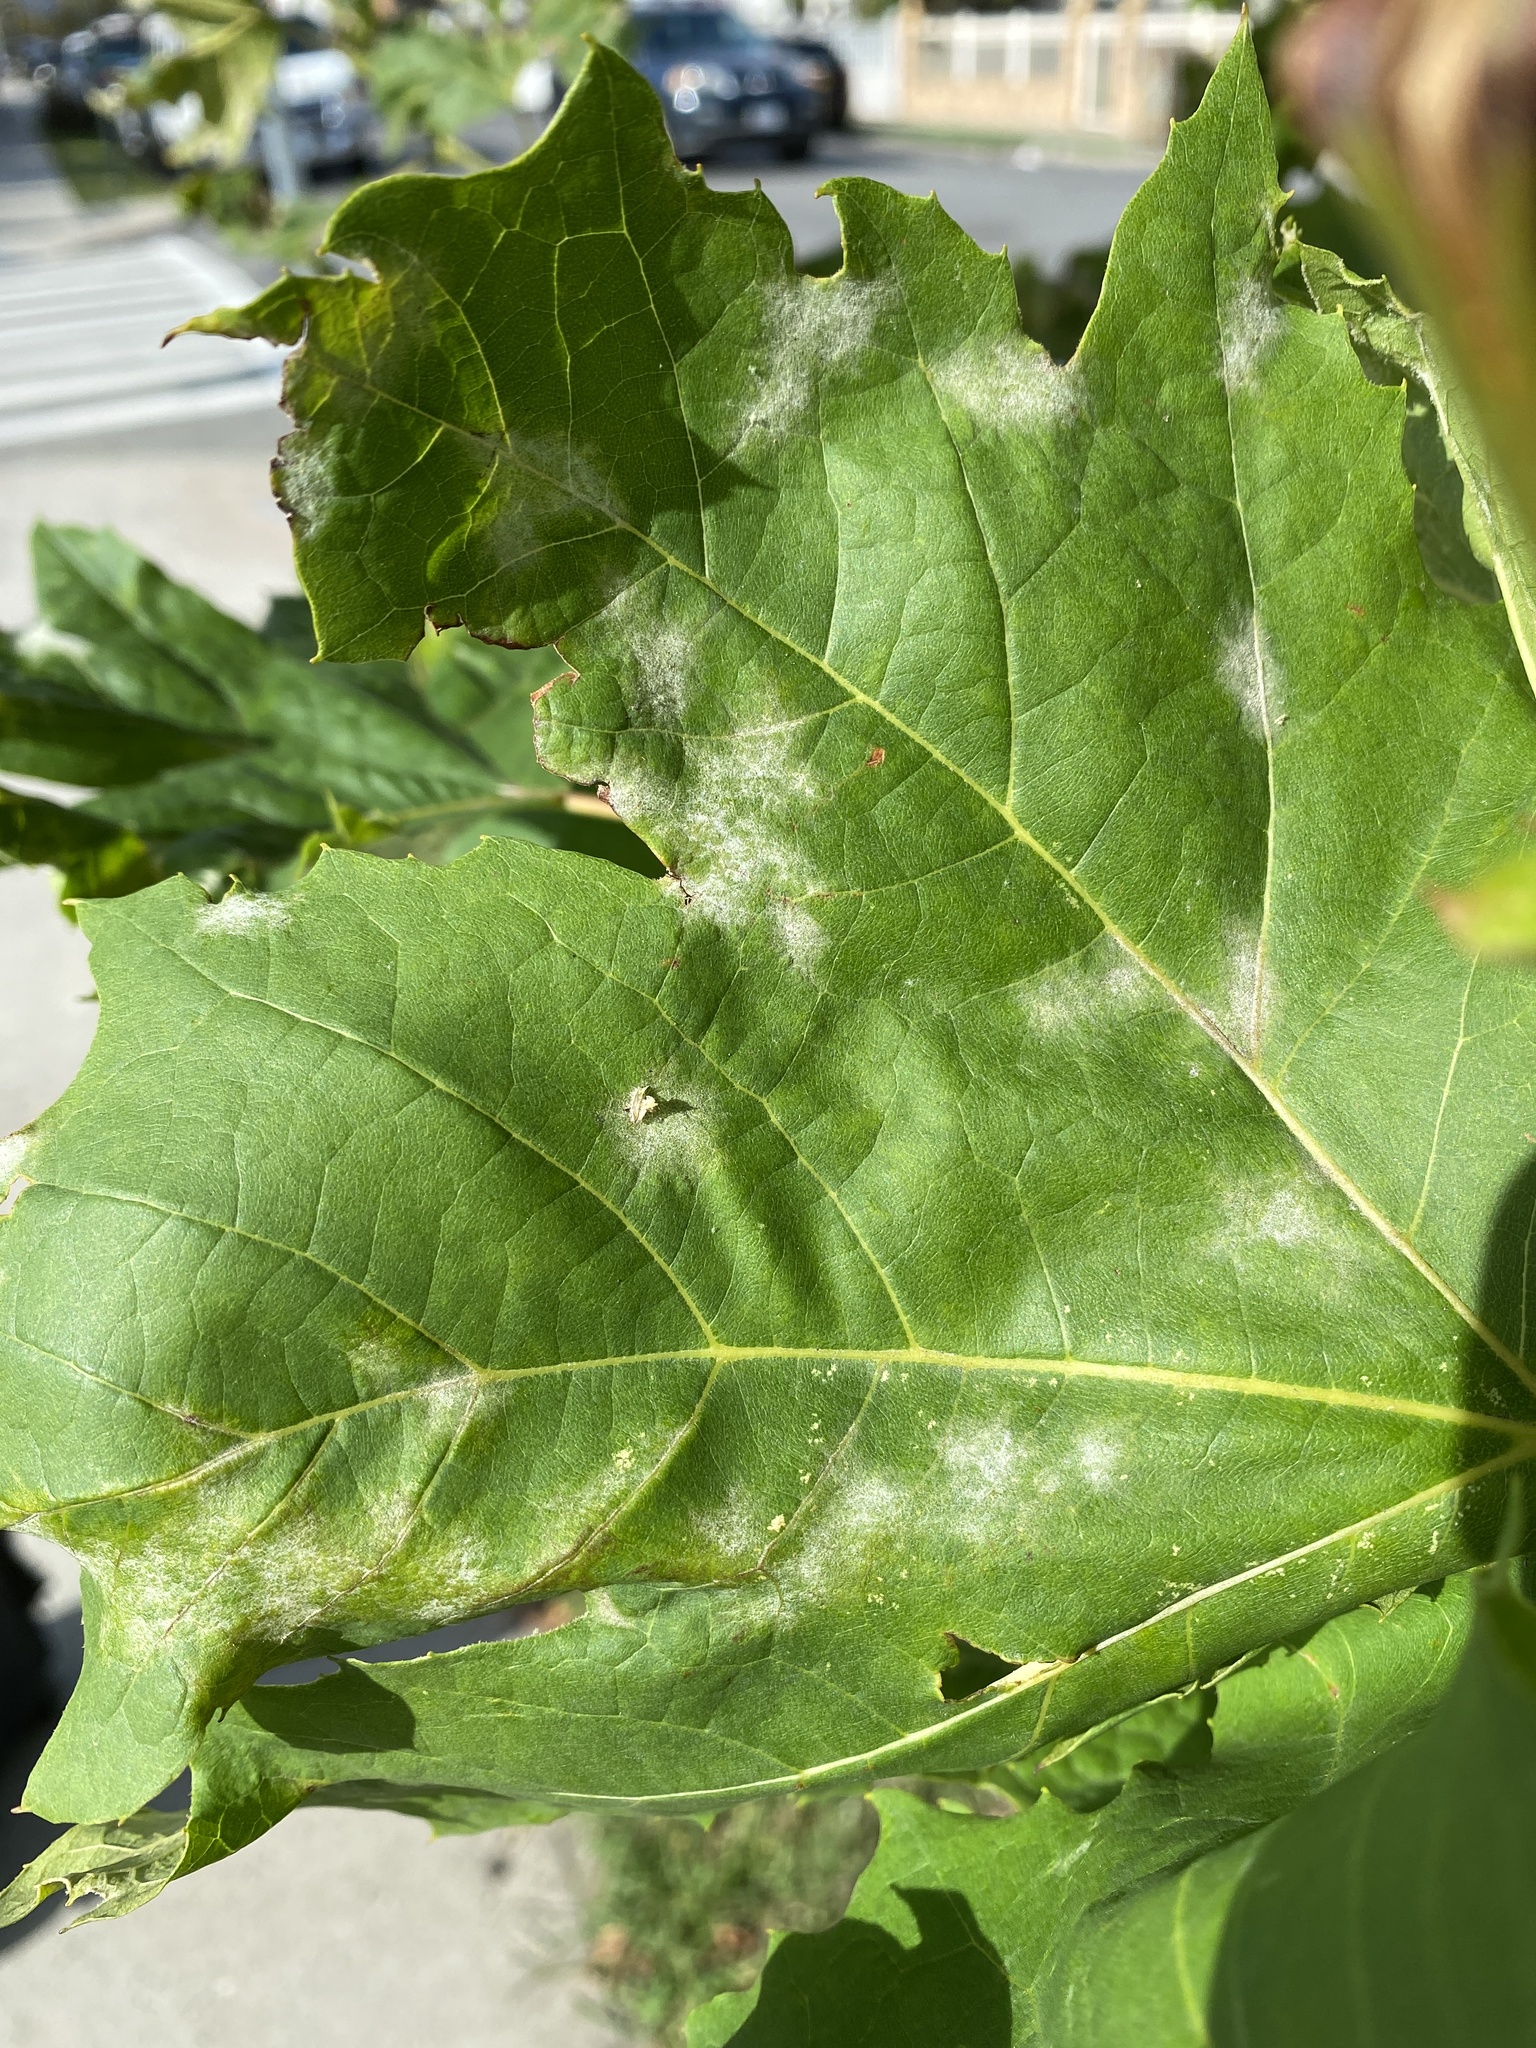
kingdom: Fungi
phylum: Ascomycota
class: Leotiomycetes
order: Helotiales
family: Erysiphaceae
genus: Erysiphe
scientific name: Erysiphe platani
